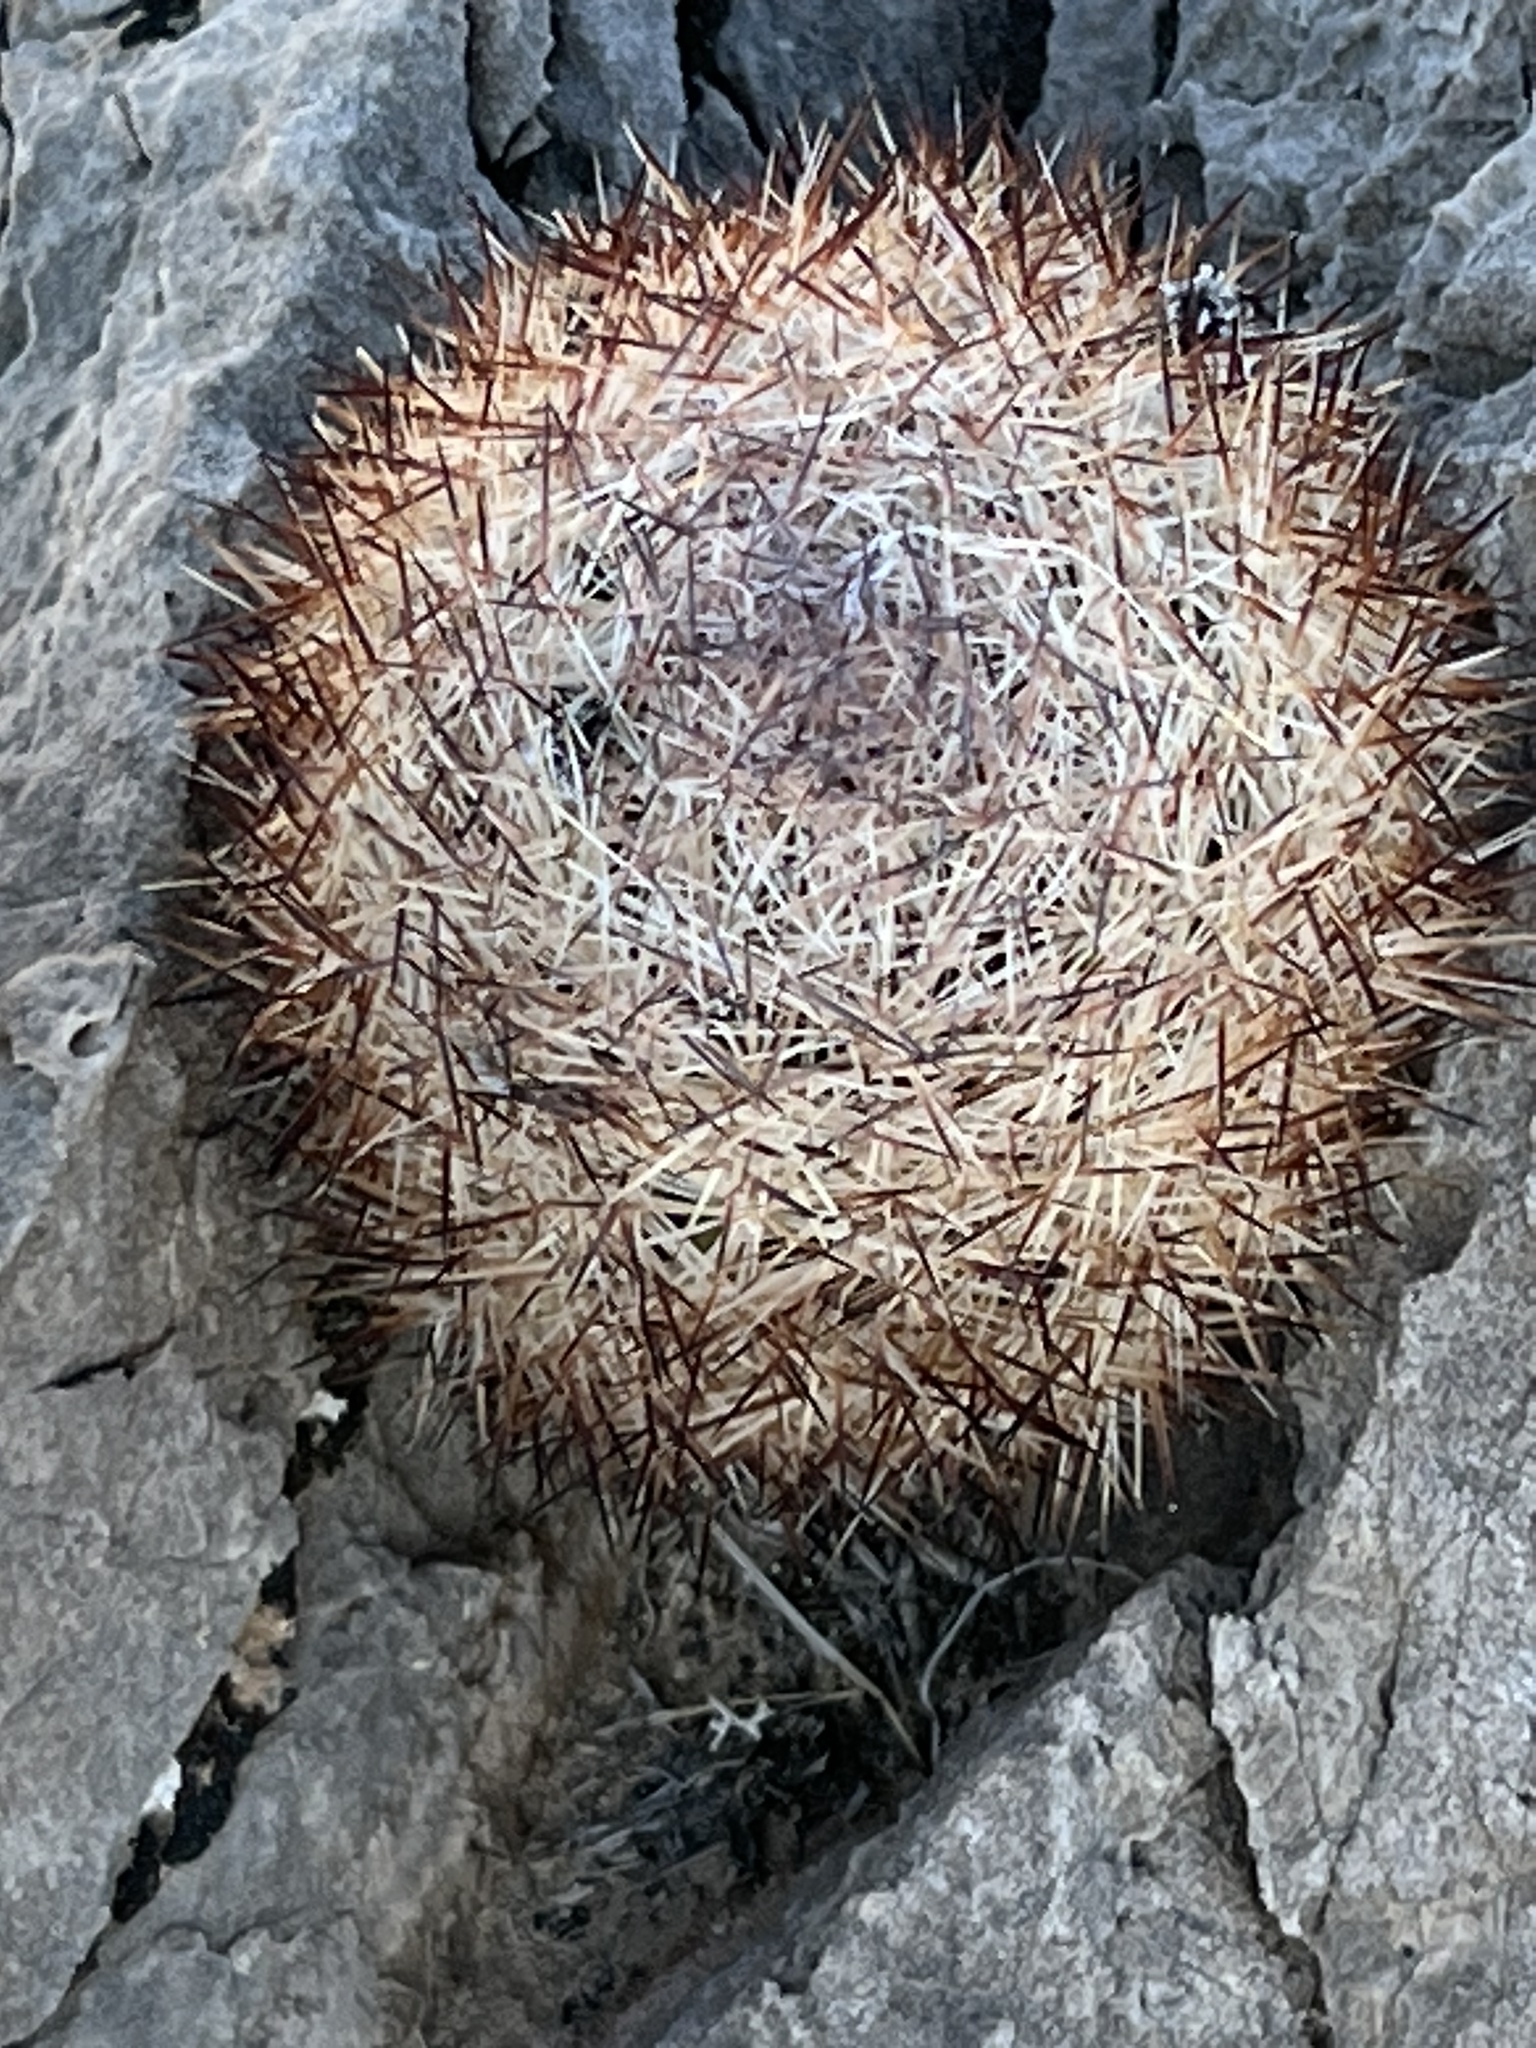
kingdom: Plantae
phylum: Tracheophyta
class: Magnoliopsida
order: Caryophyllales
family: Cactaceae
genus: Pelecyphora
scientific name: Pelecyphora dasyacantha
